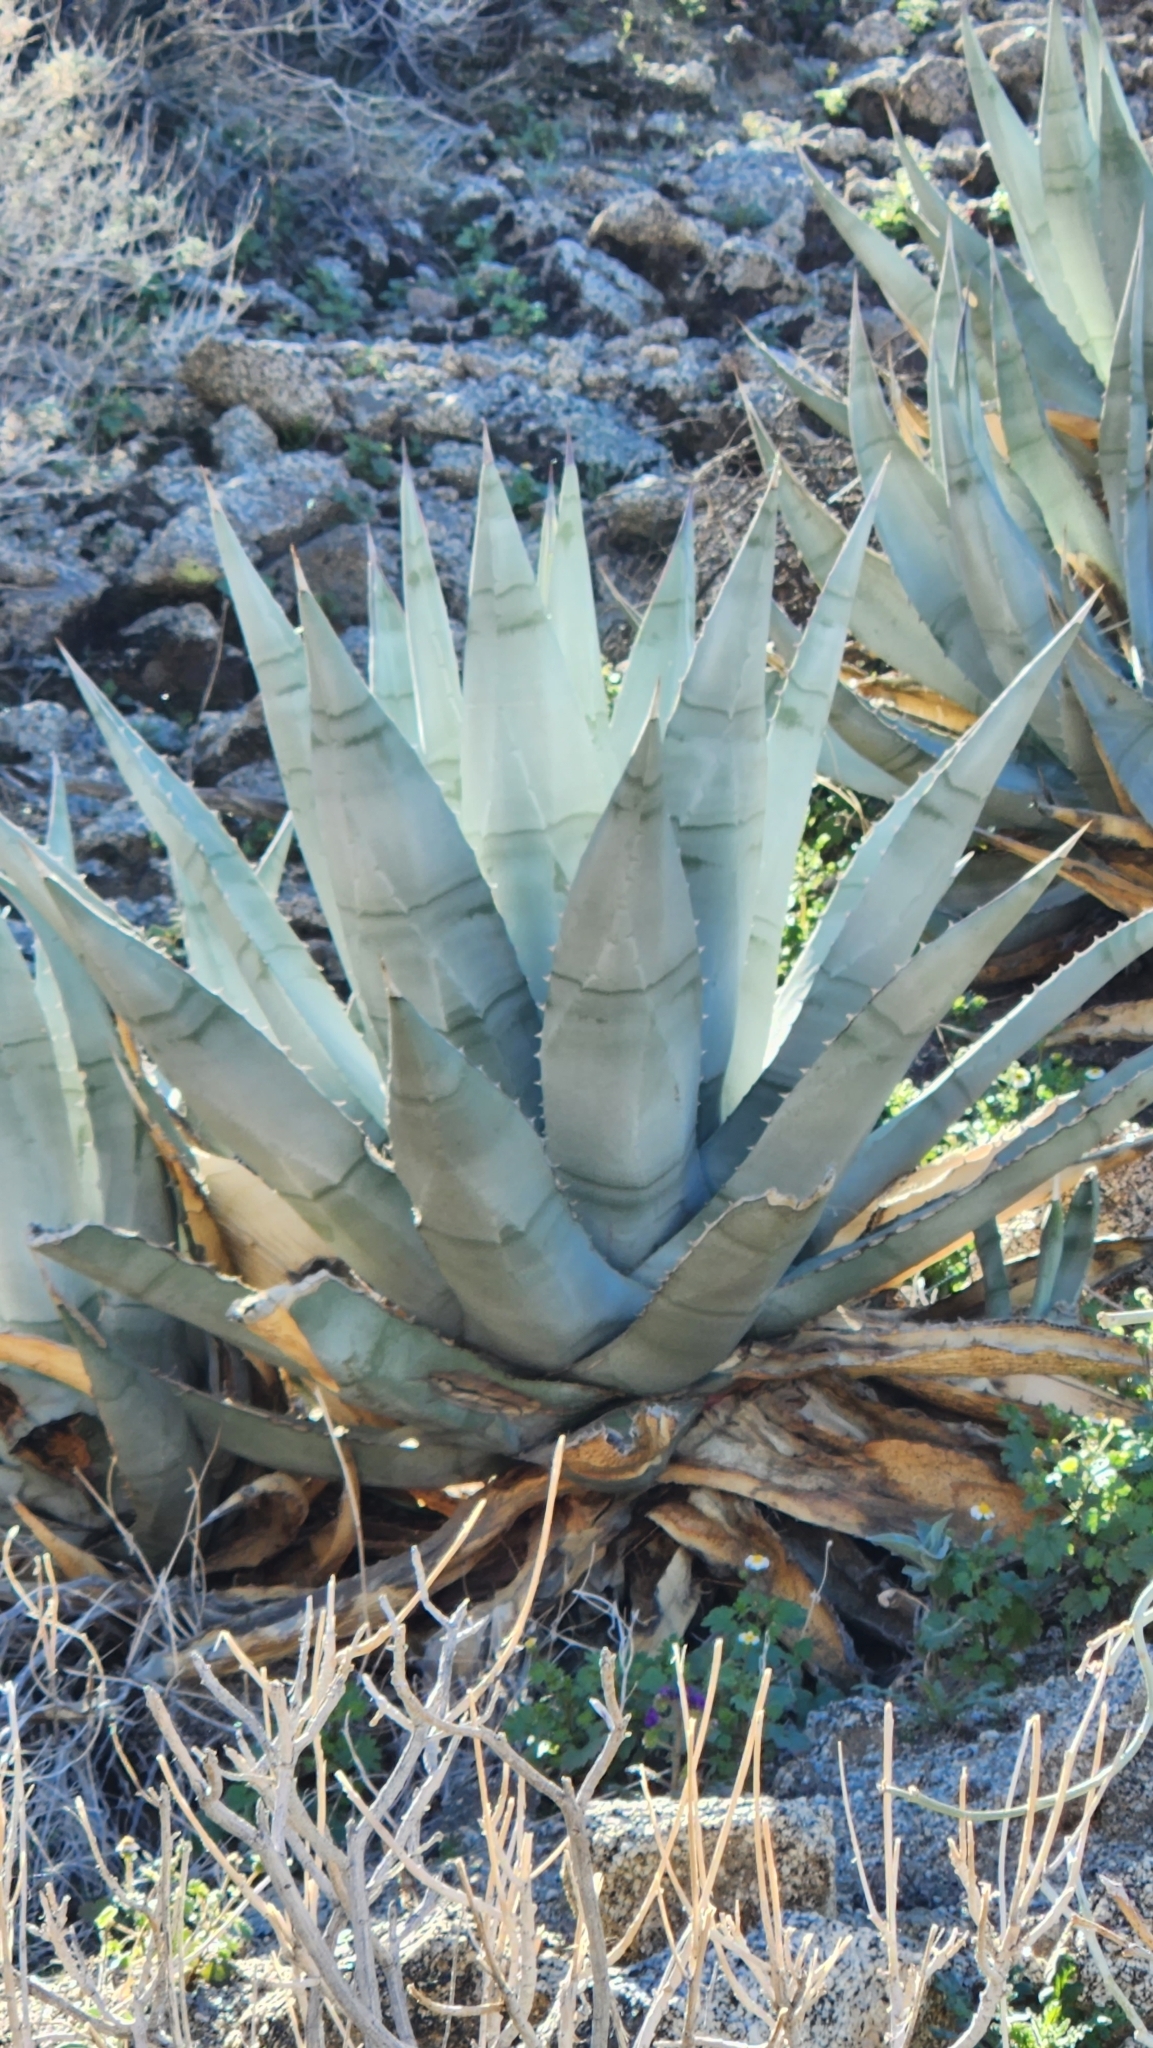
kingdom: Plantae
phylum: Tracheophyta
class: Liliopsida
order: Asparagales
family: Asparagaceae
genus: Agave
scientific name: Agave deserti
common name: Desert agave
